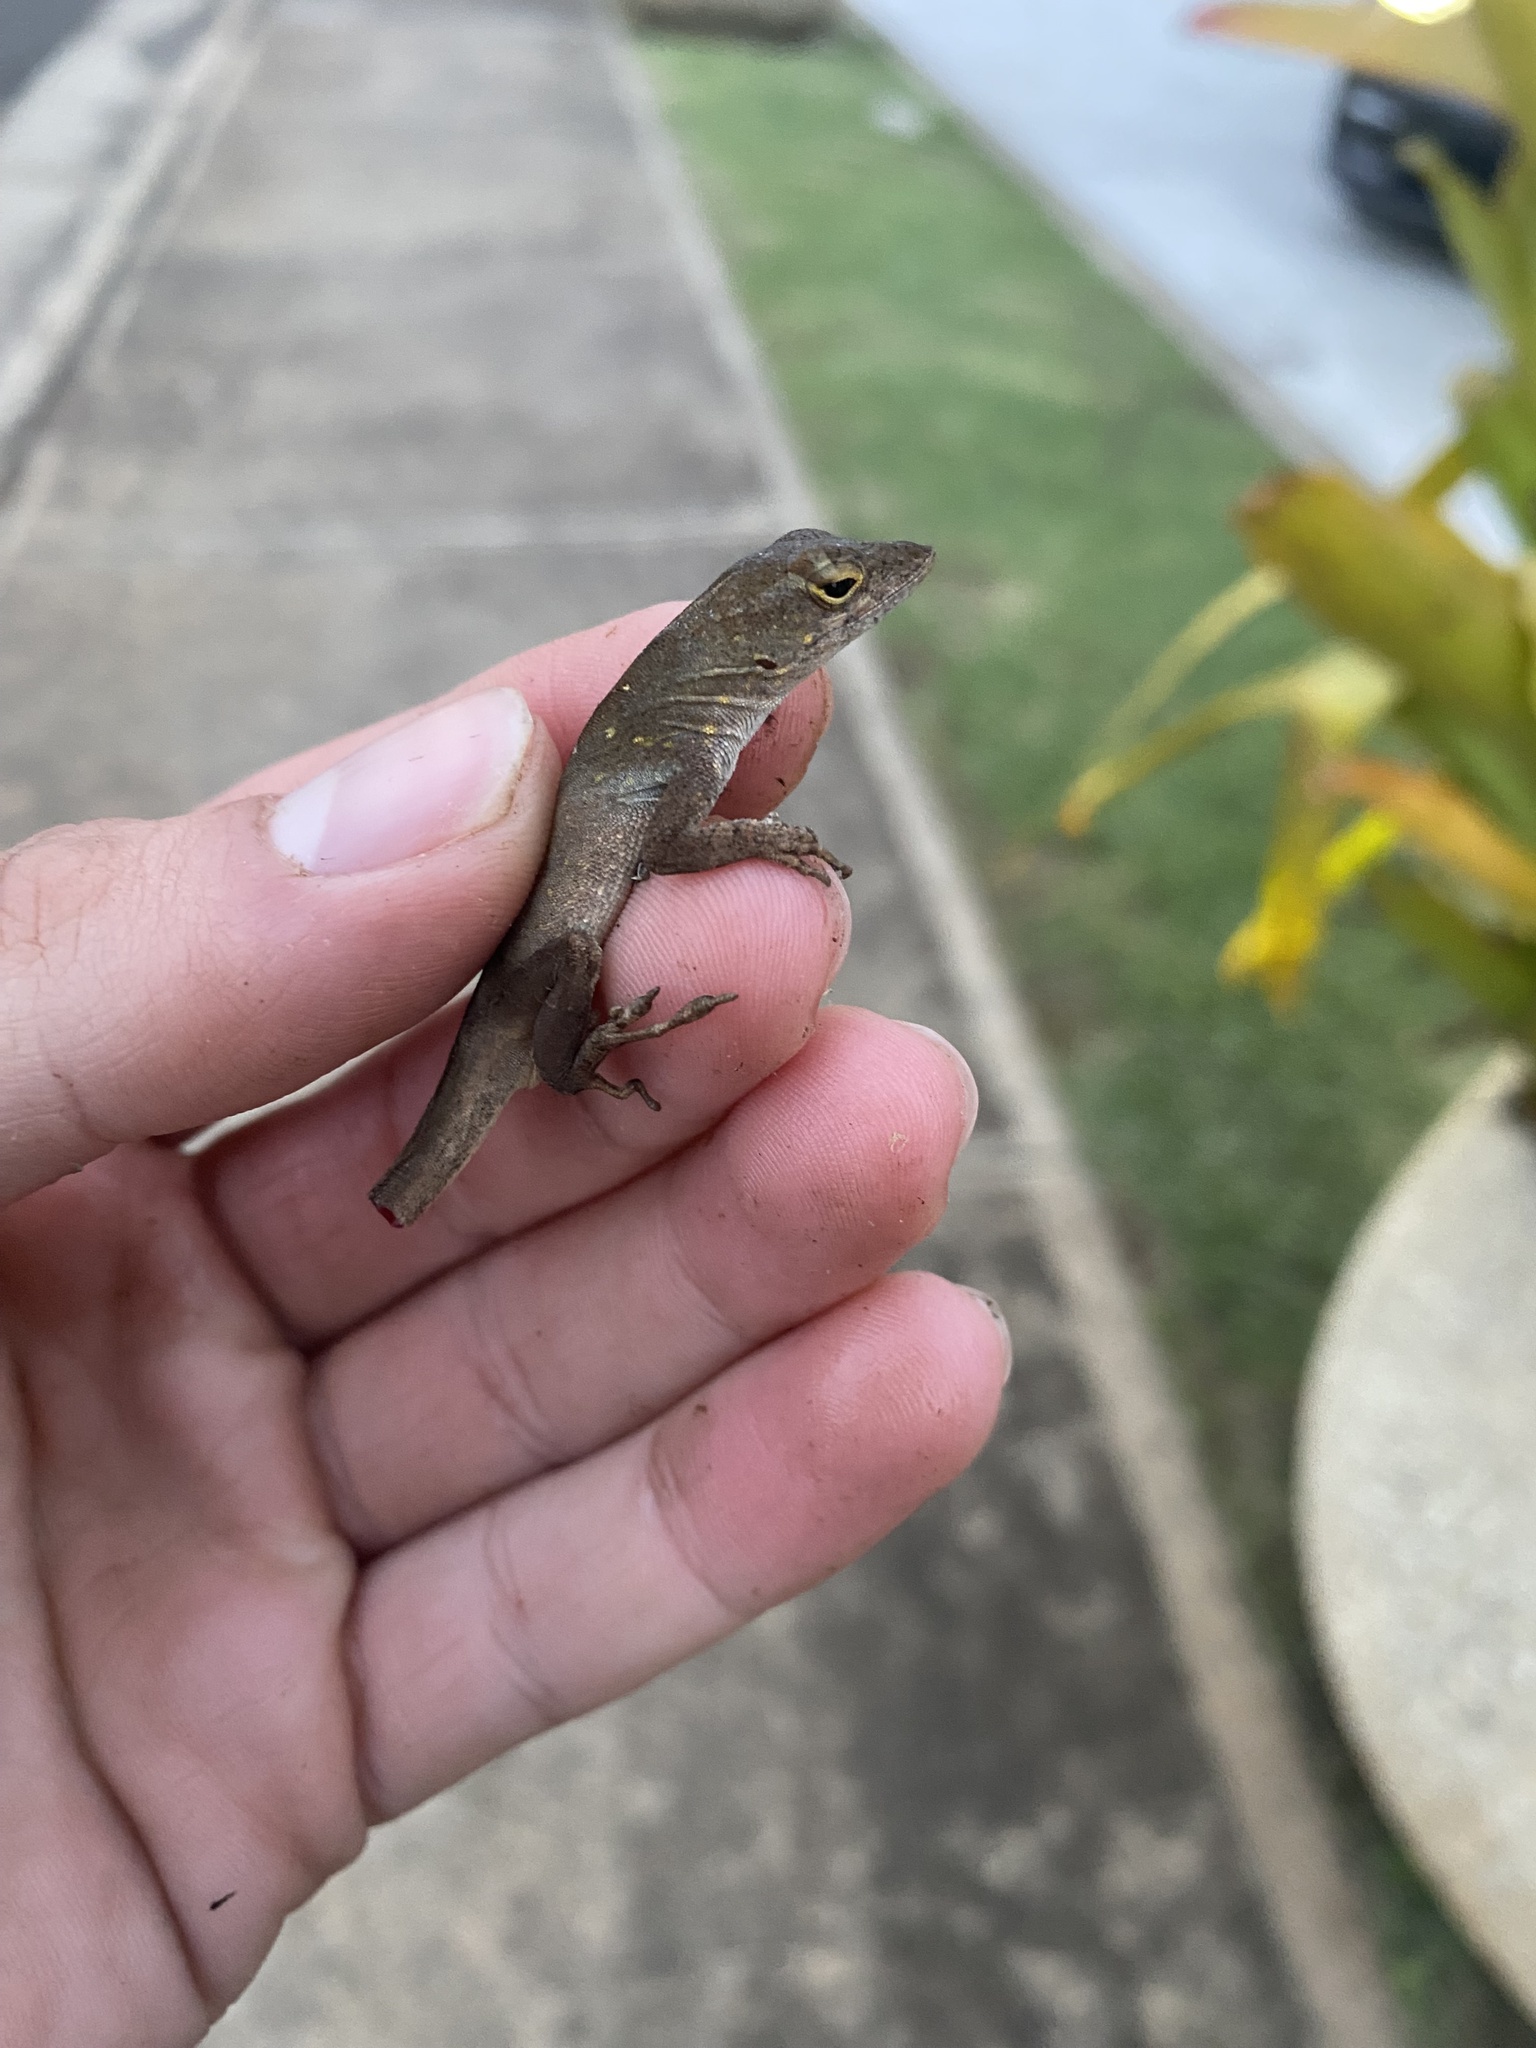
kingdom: Animalia
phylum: Chordata
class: Squamata
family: Dactyloidae
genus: Anolis
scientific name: Anolis sagrei
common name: Brown anole
